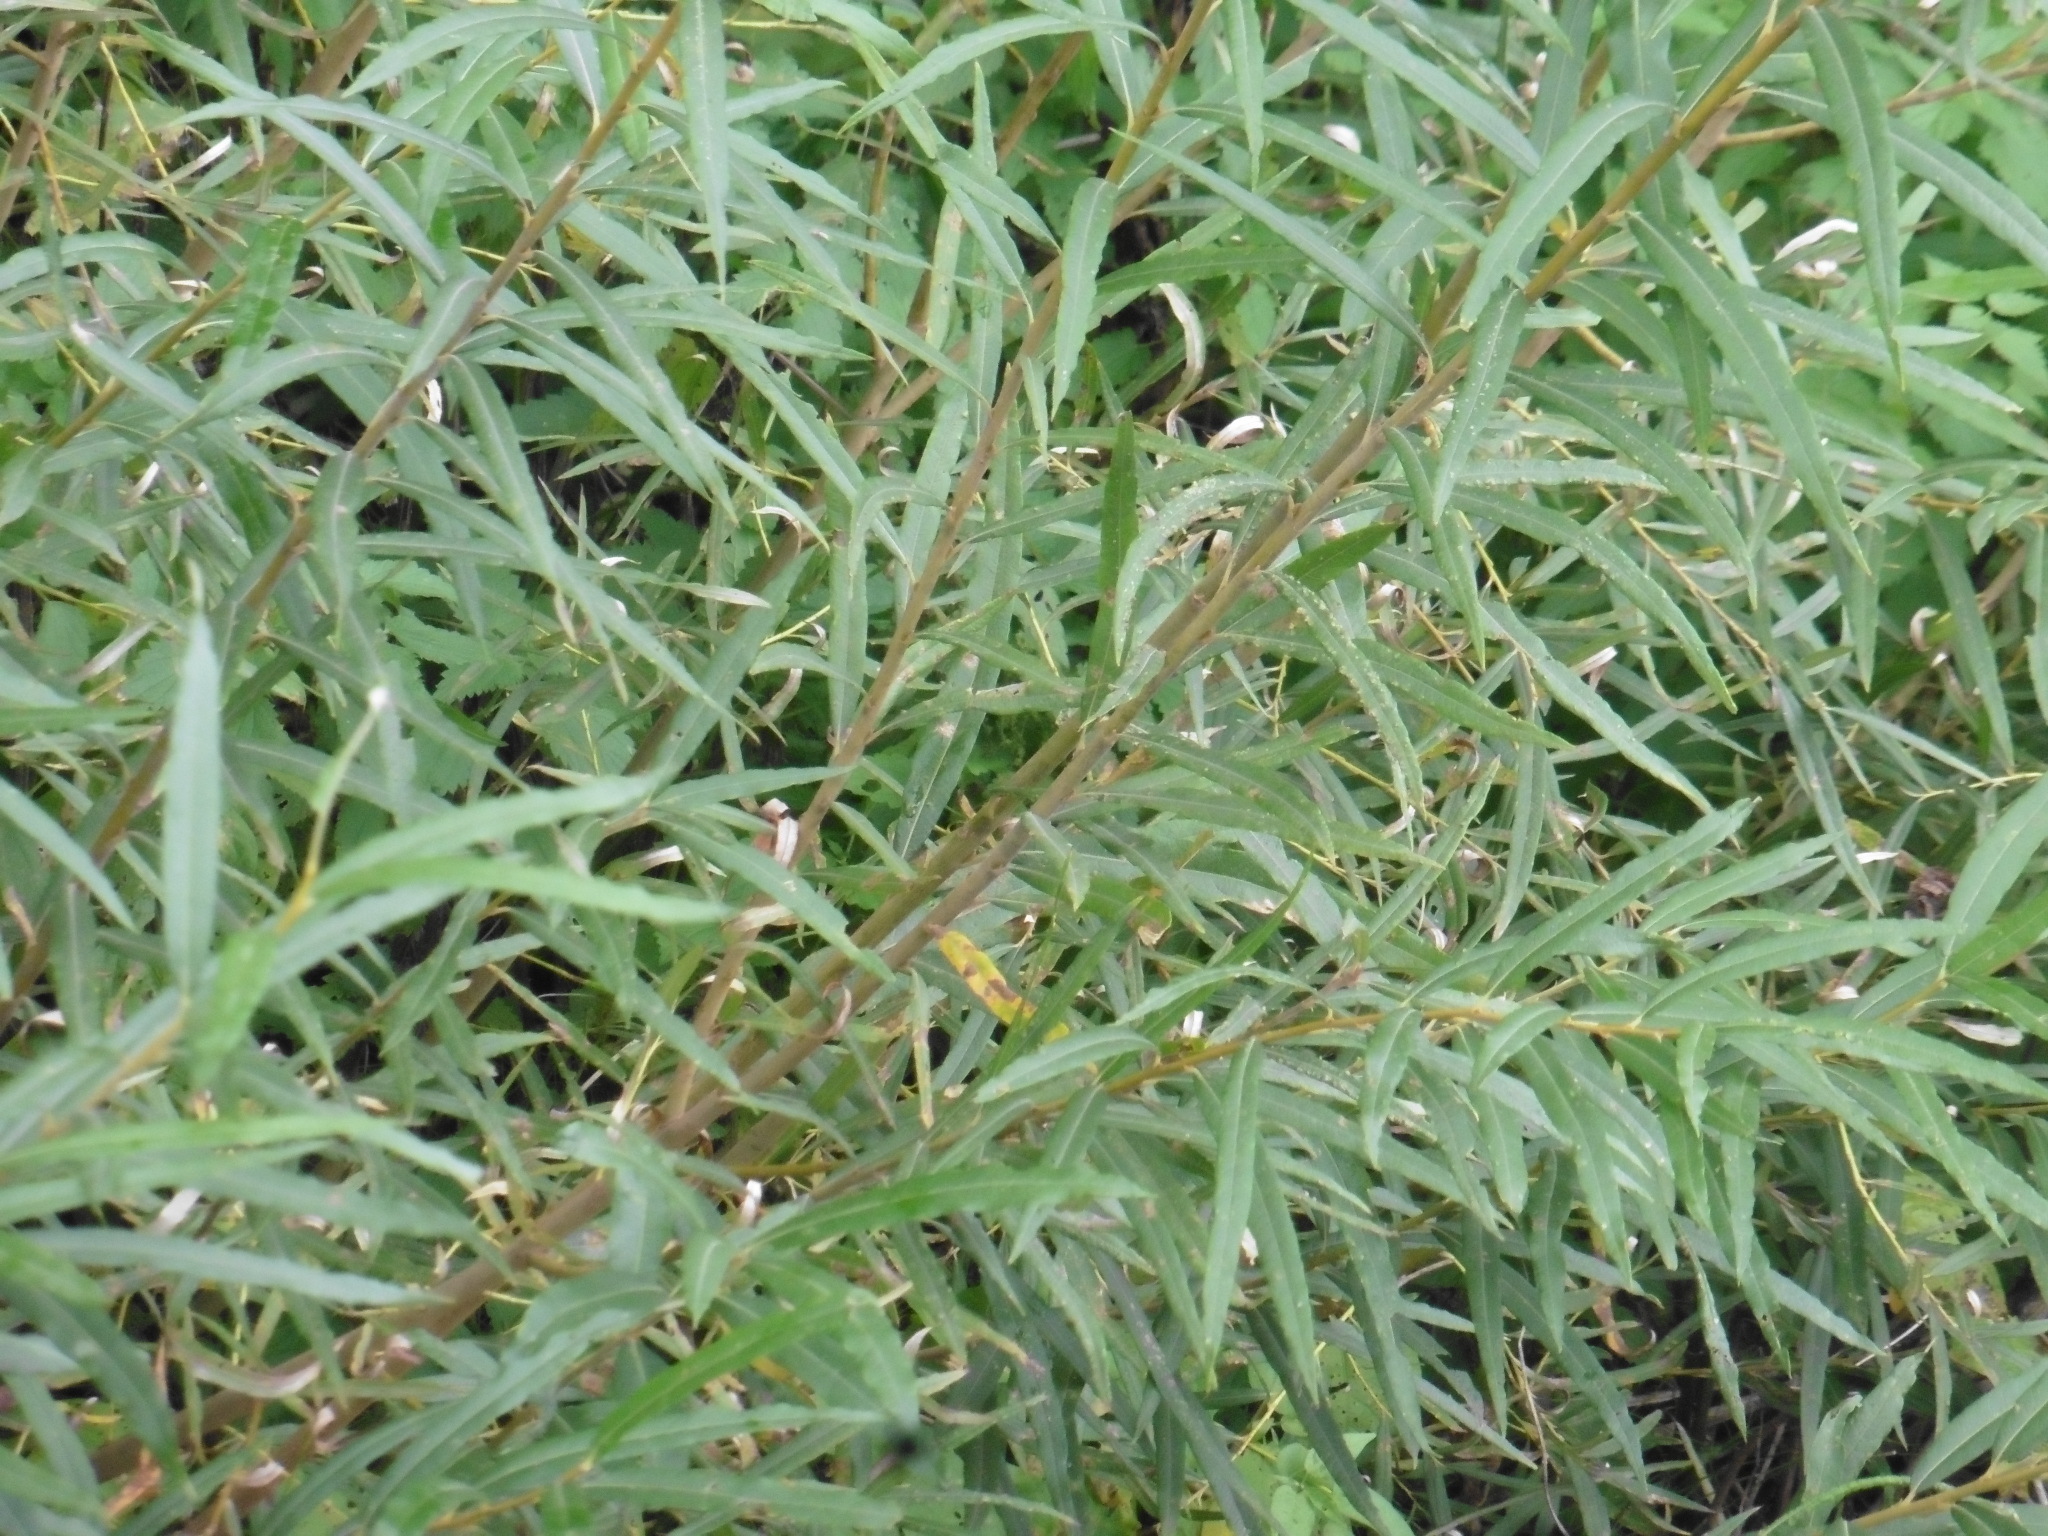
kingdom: Plantae
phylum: Tracheophyta
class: Magnoliopsida
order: Malpighiales
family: Salicaceae
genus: Salix
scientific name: Salix viminalis
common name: Osier
